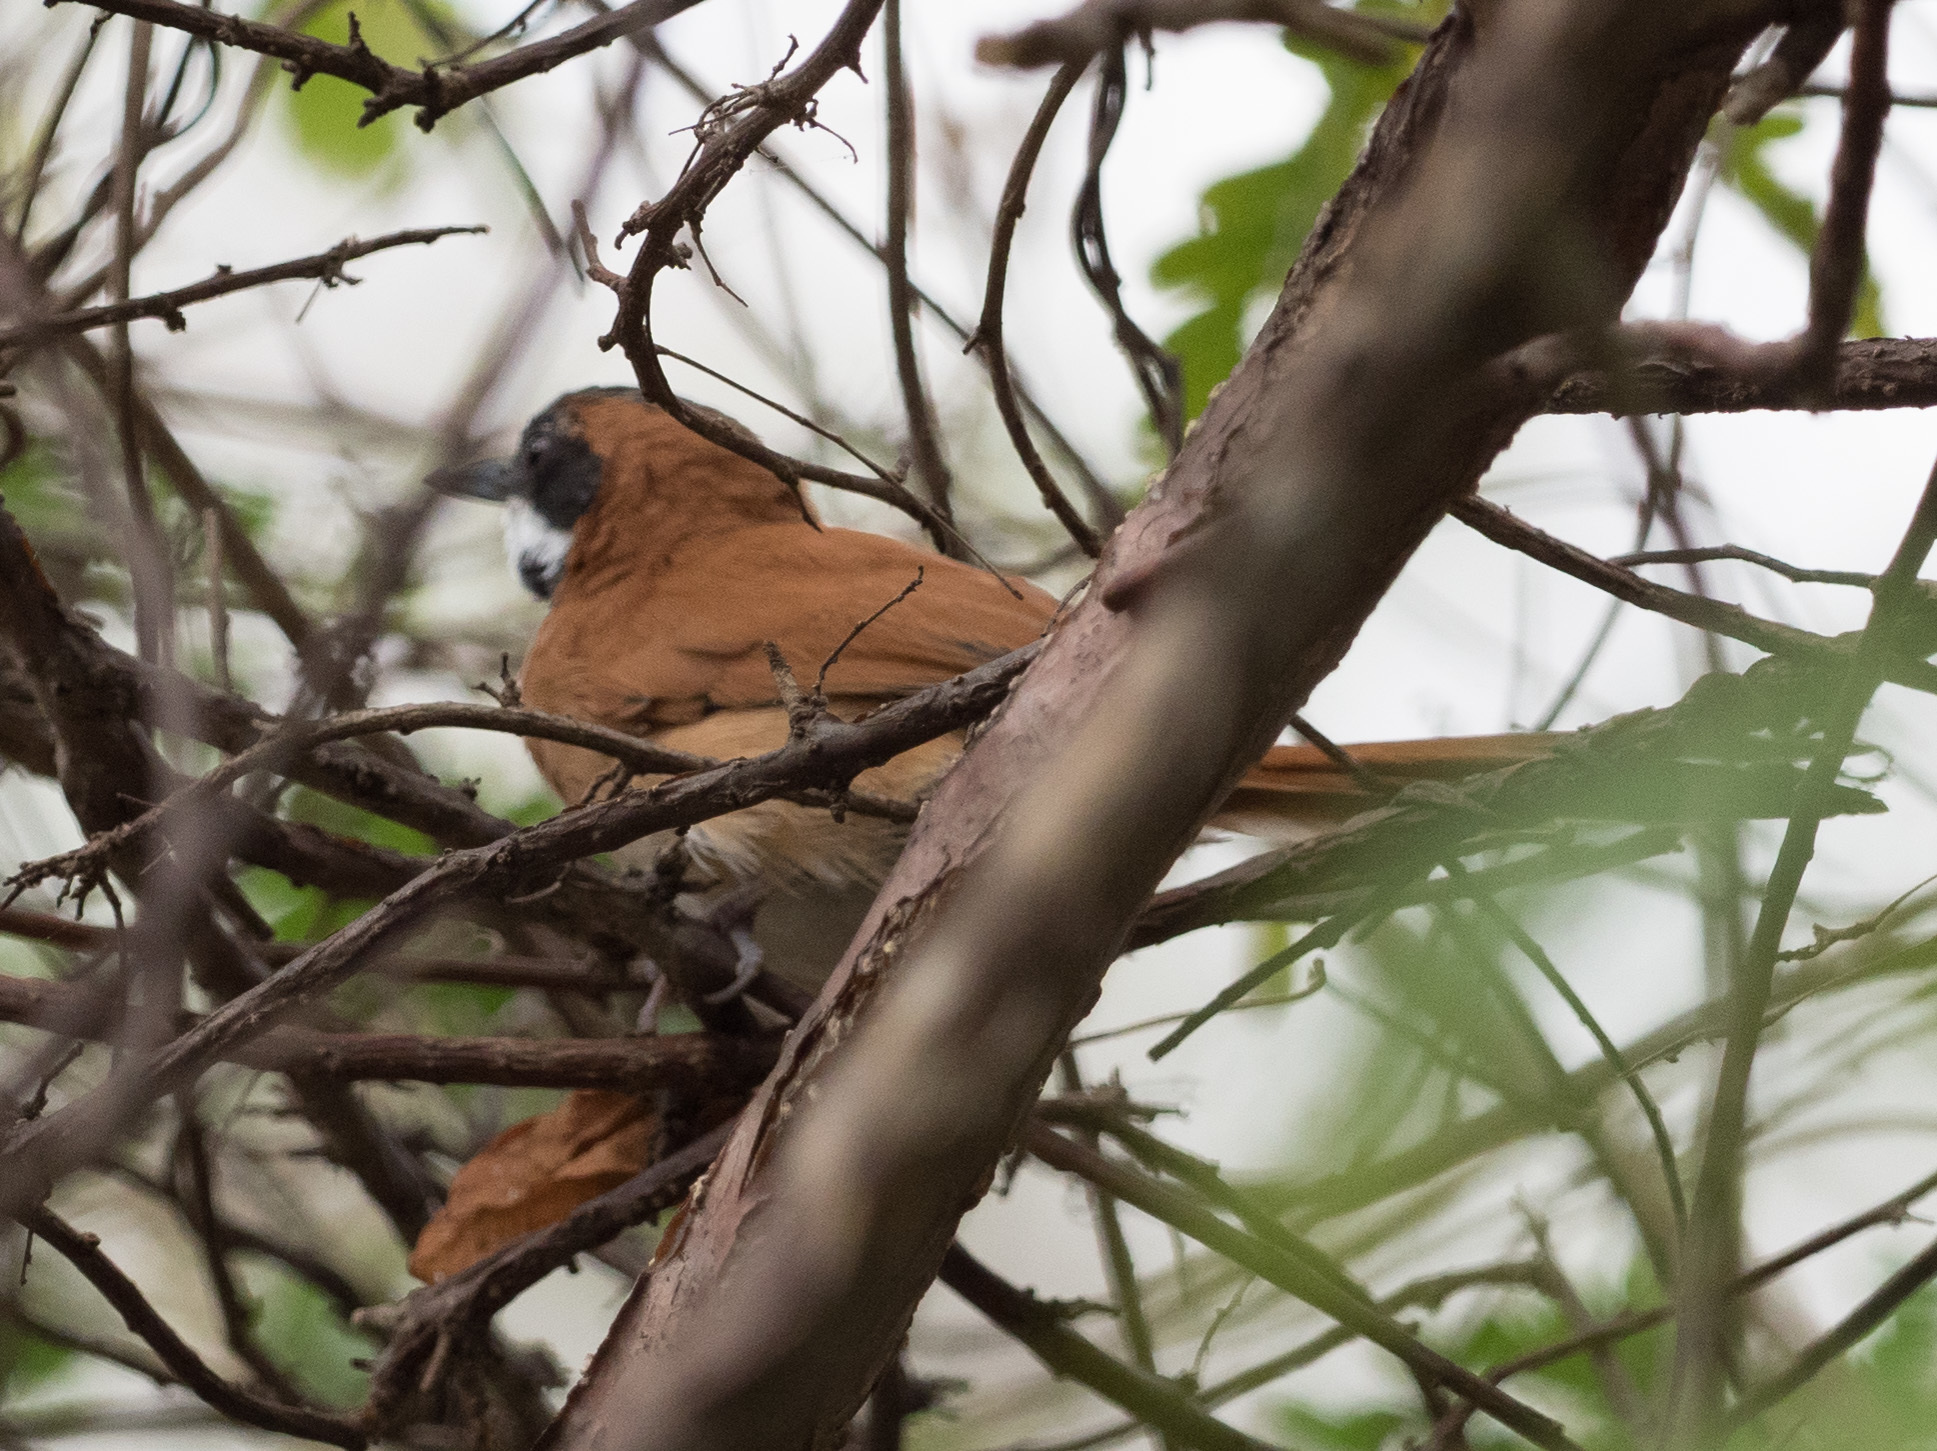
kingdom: Animalia
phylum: Chordata
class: Aves
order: Passeriformes
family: Furnariidae
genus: Synallaxis
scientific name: Synallaxis candei
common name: White-whiskered spinetail
